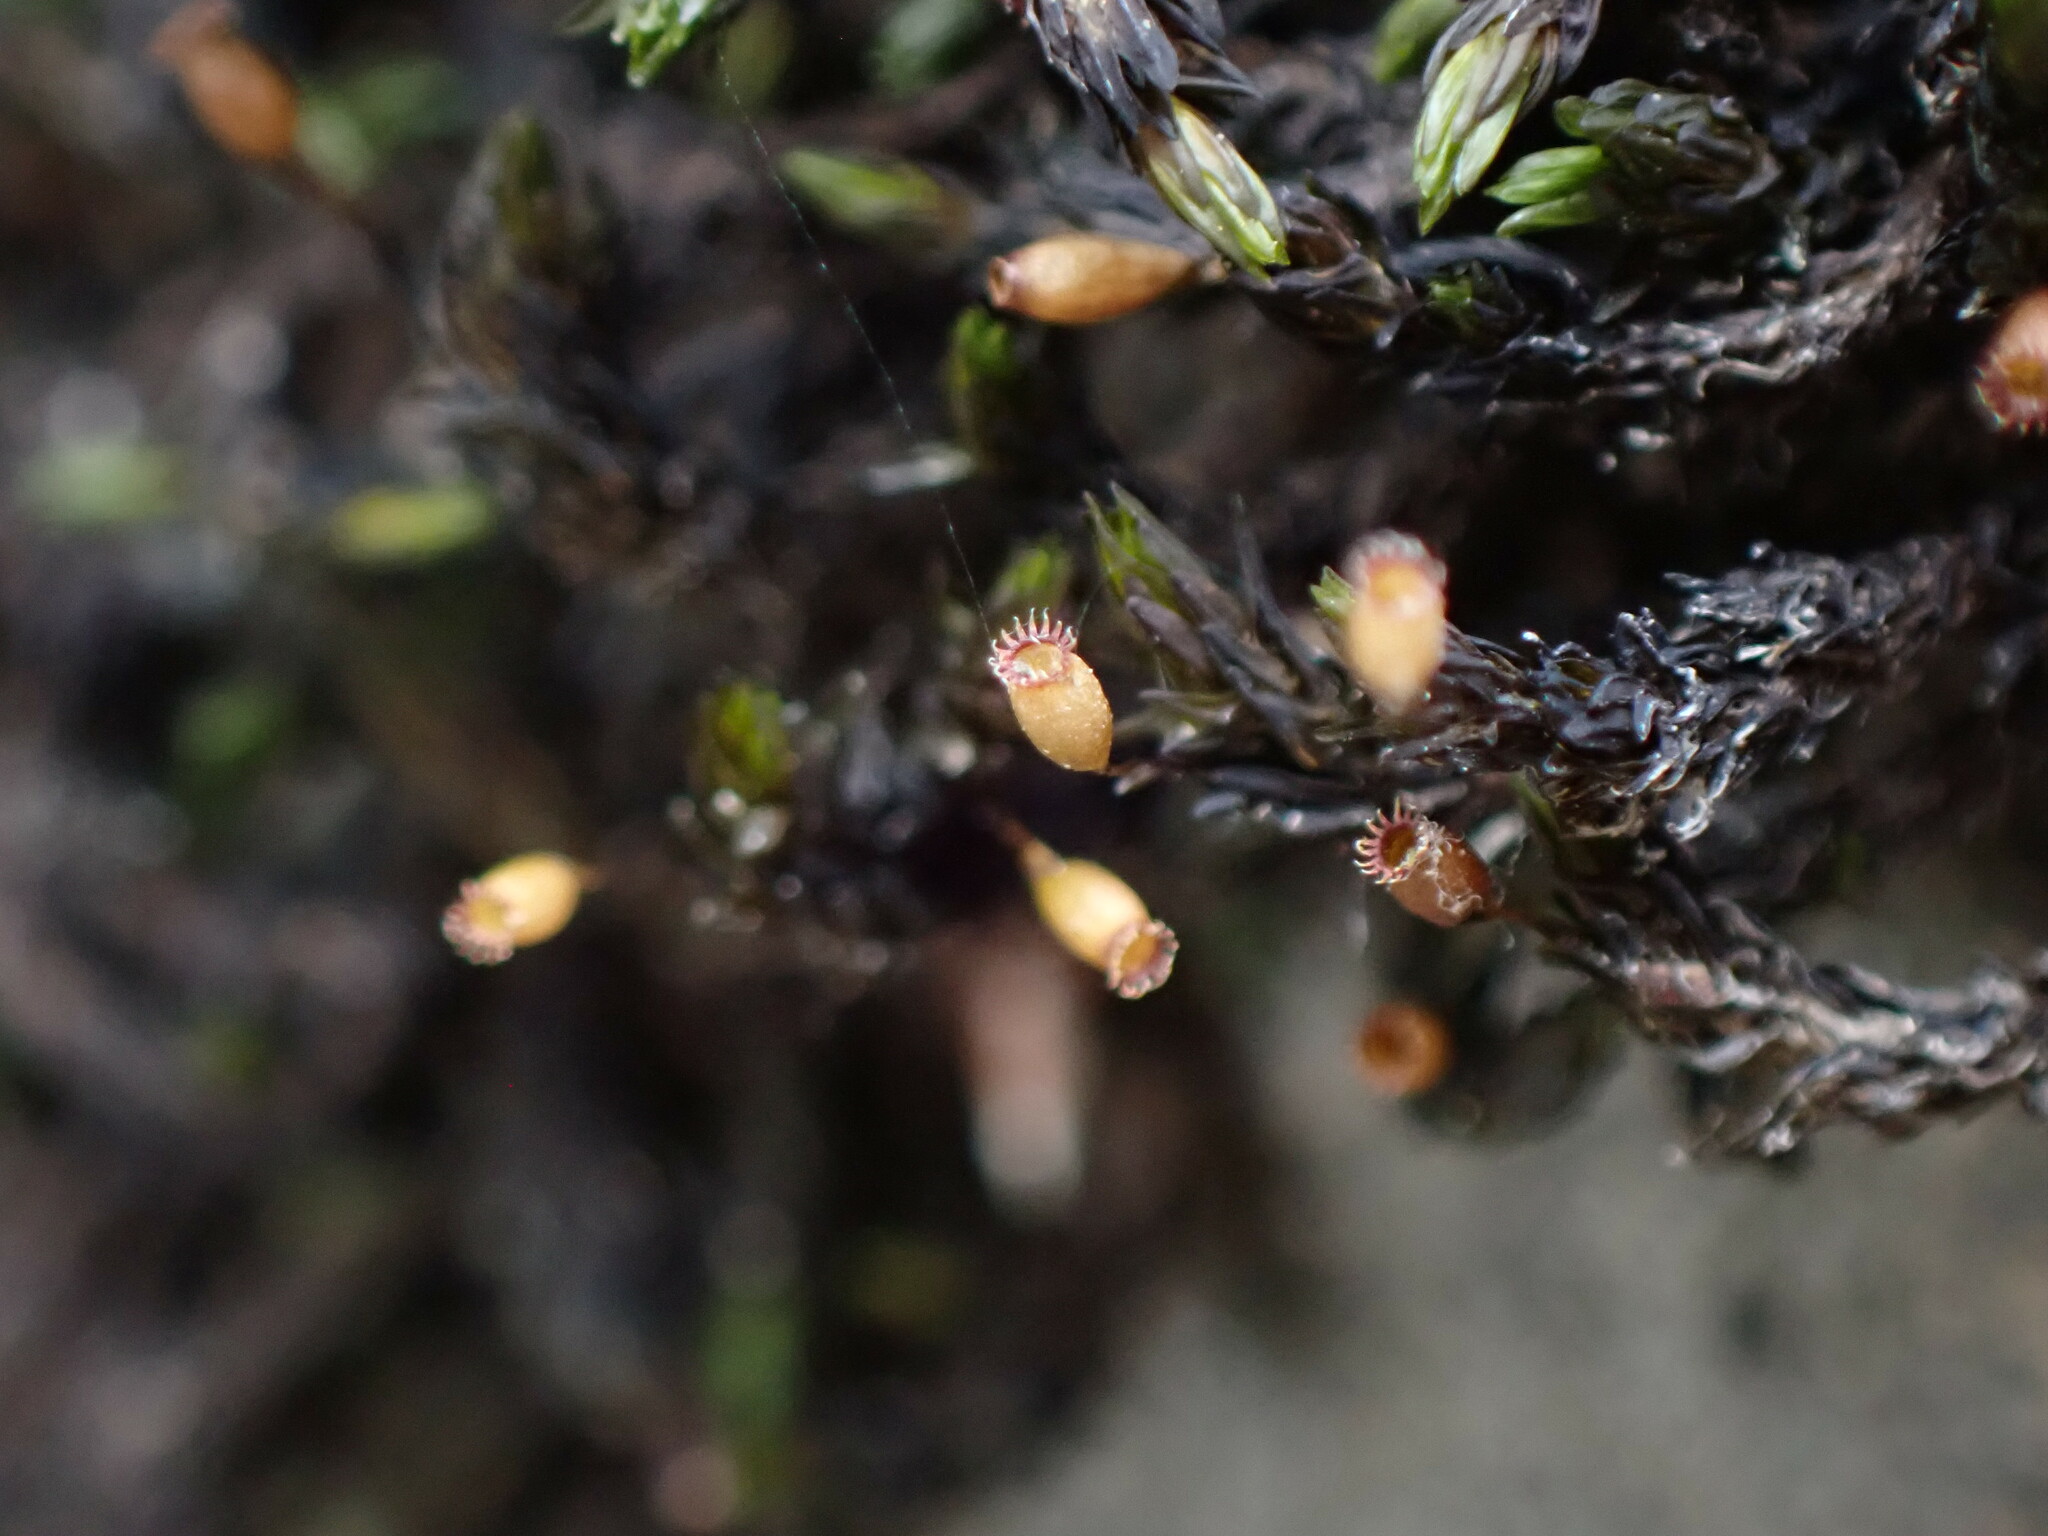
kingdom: Plantae
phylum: Bryophyta
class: Bryopsida
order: Grimmiales
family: Grimmiaceae
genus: Codriophorus
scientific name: Codriophorus acicularis
